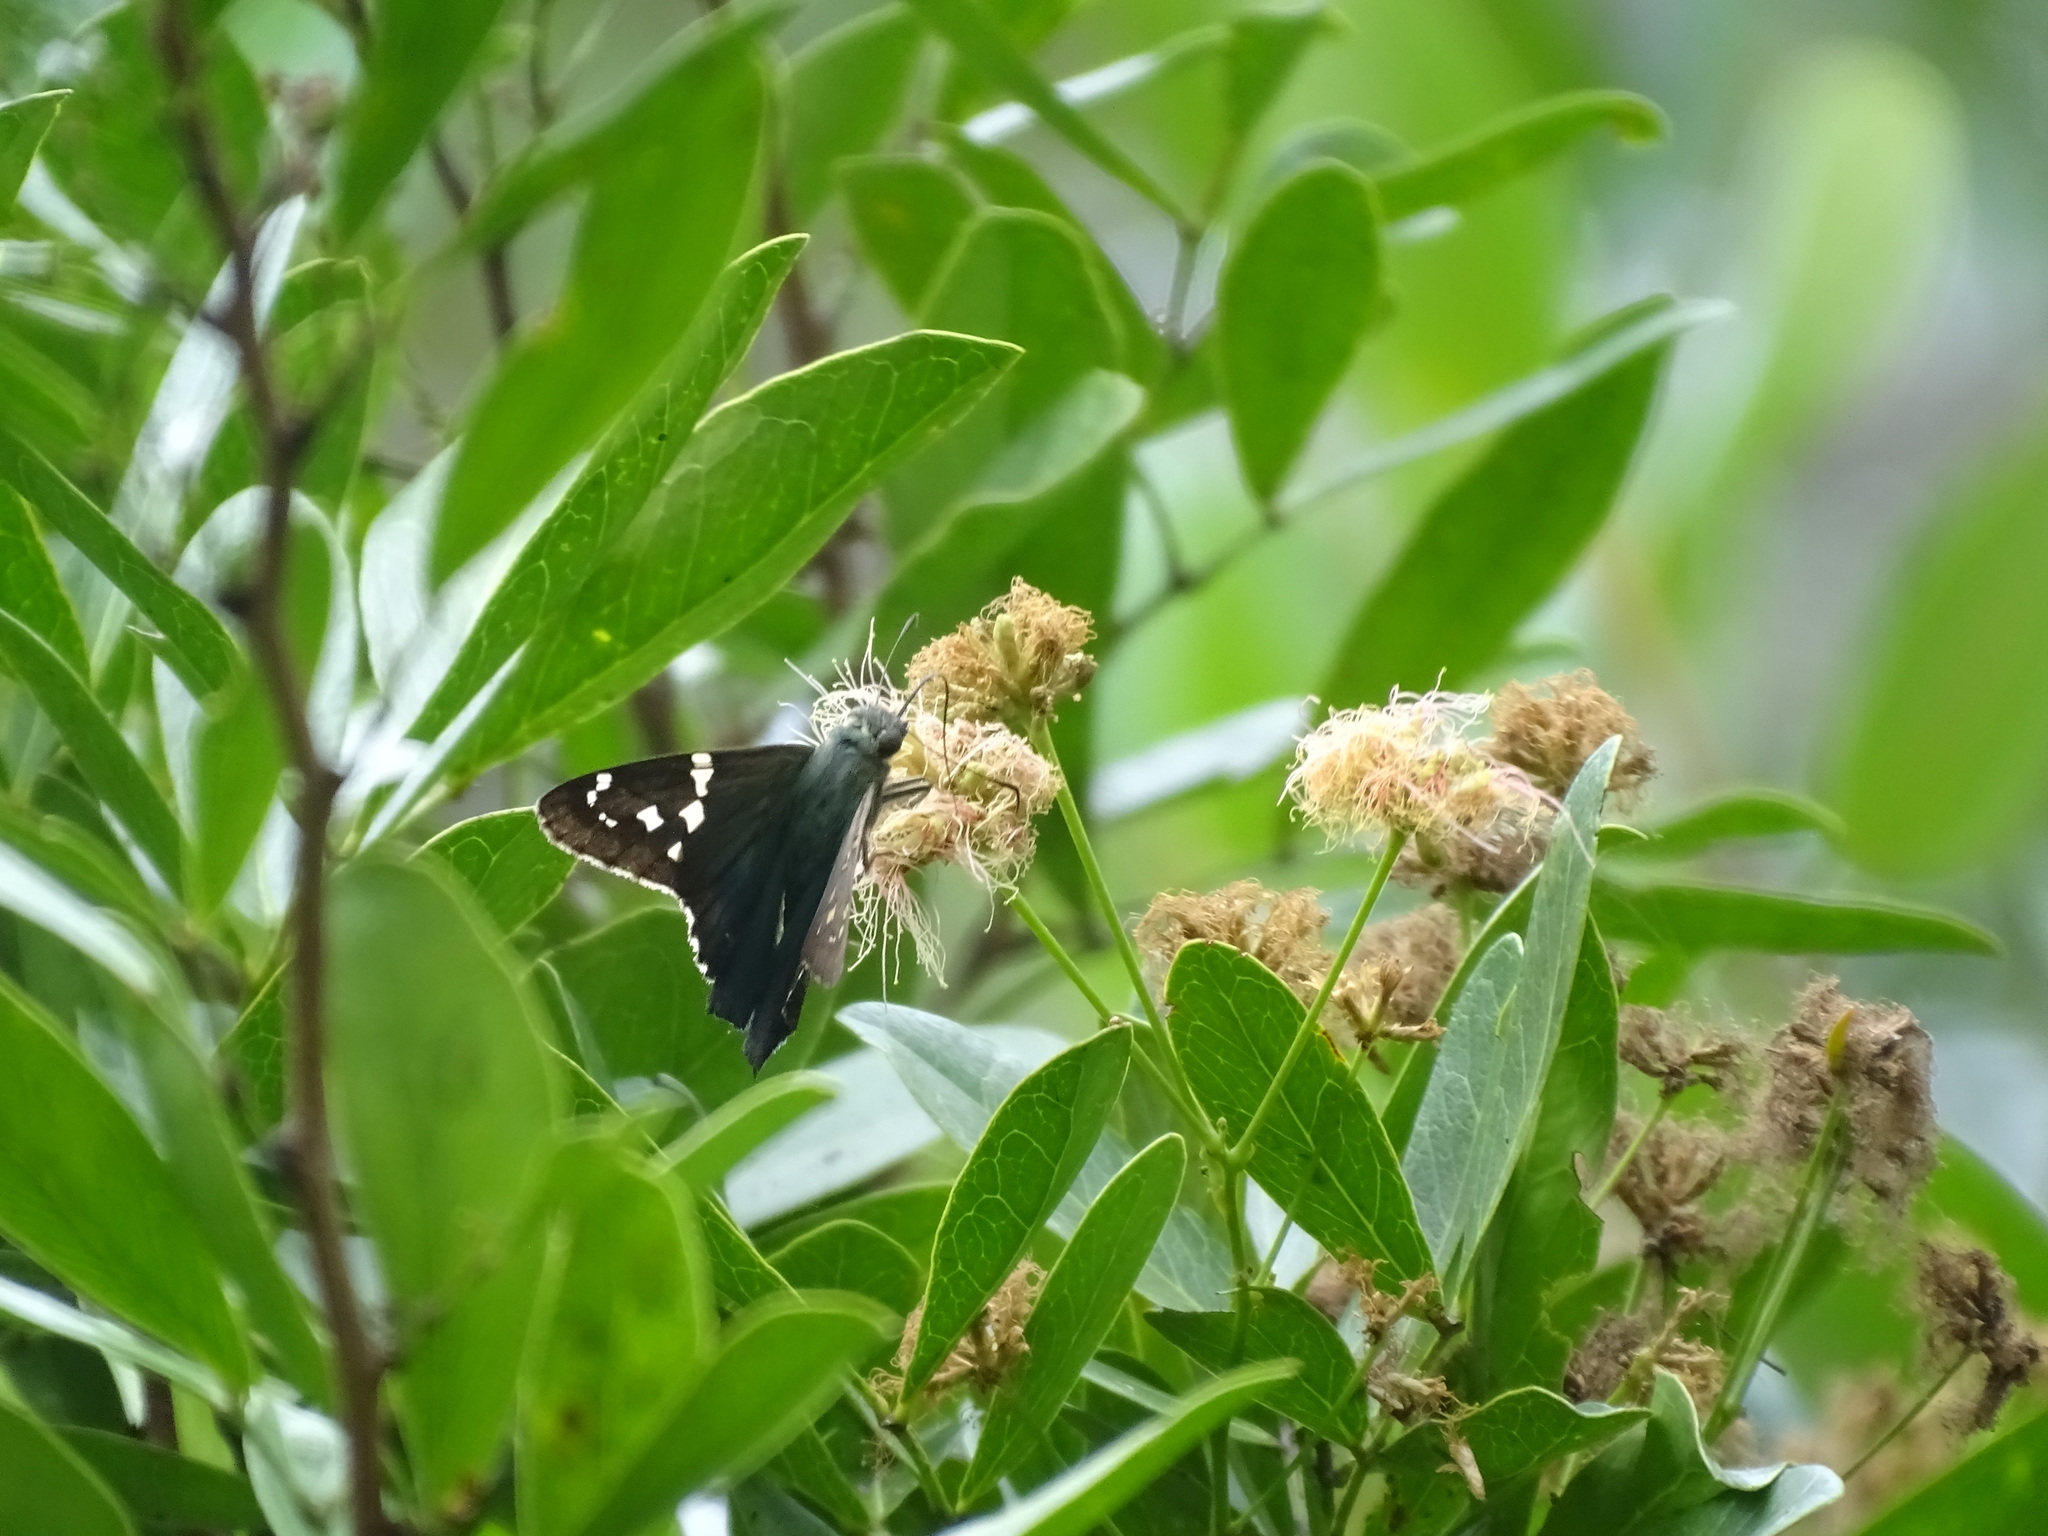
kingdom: Animalia
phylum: Arthropoda
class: Insecta
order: Lepidoptera
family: Hesperiidae
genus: Urbanus
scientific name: Urbanus proteus
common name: Long-tailed skipper
